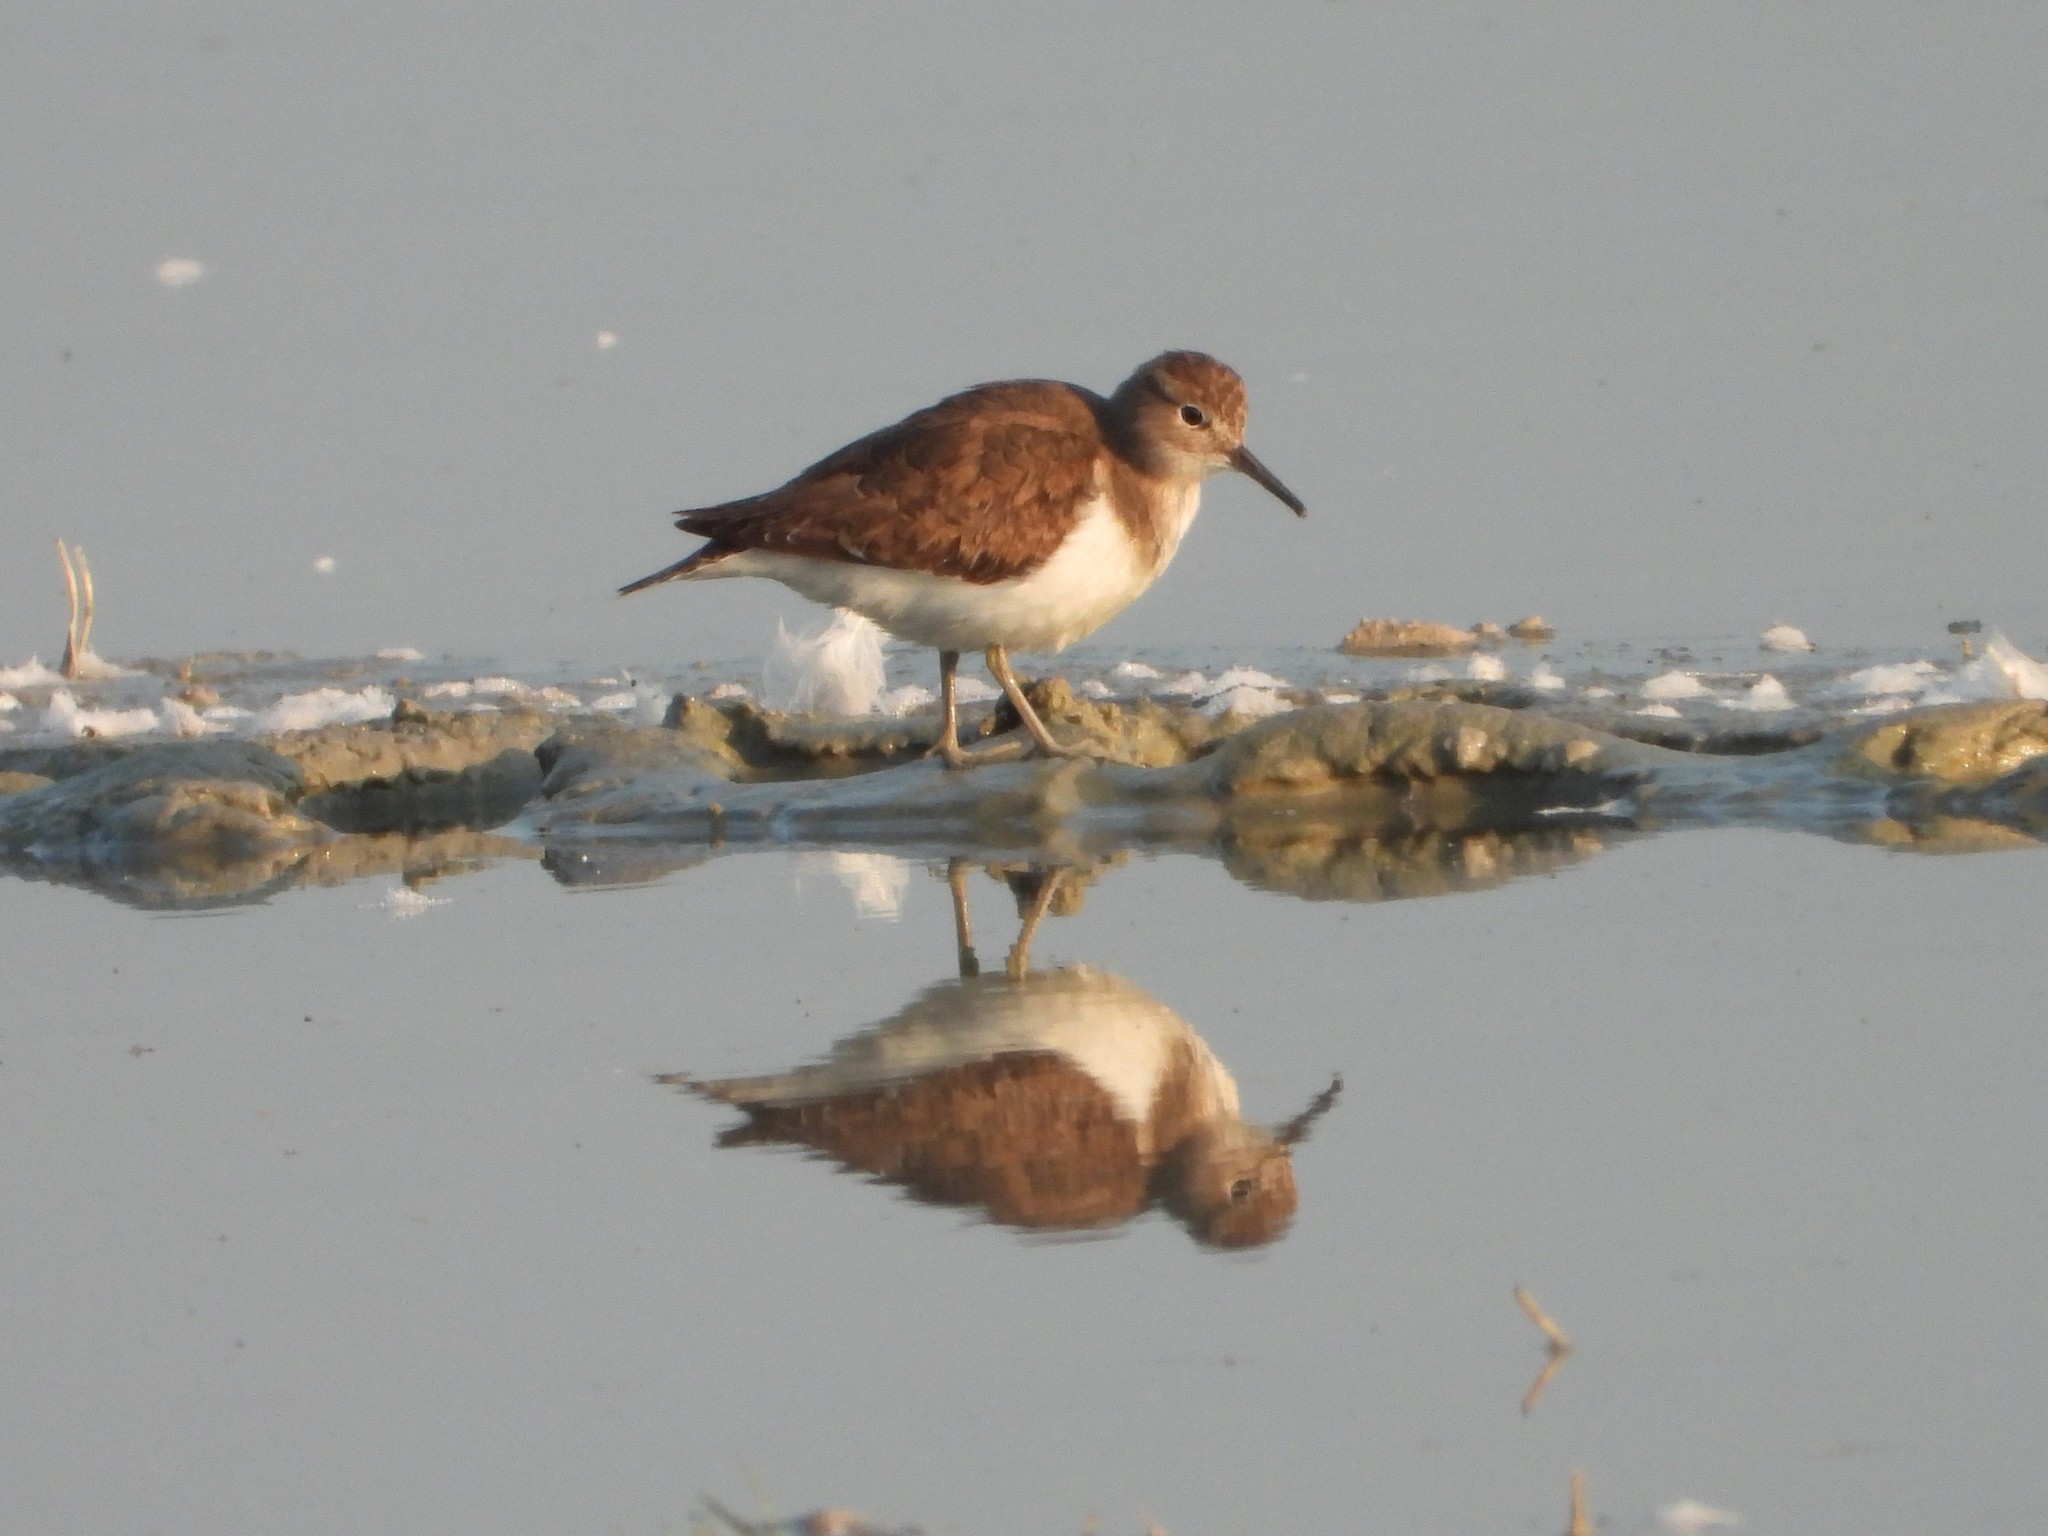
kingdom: Animalia
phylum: Chordata
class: Aves
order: Charadriiformes
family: Scolopacidae
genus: Actitis
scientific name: Actitis hypoleucos
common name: Common sandpiper
